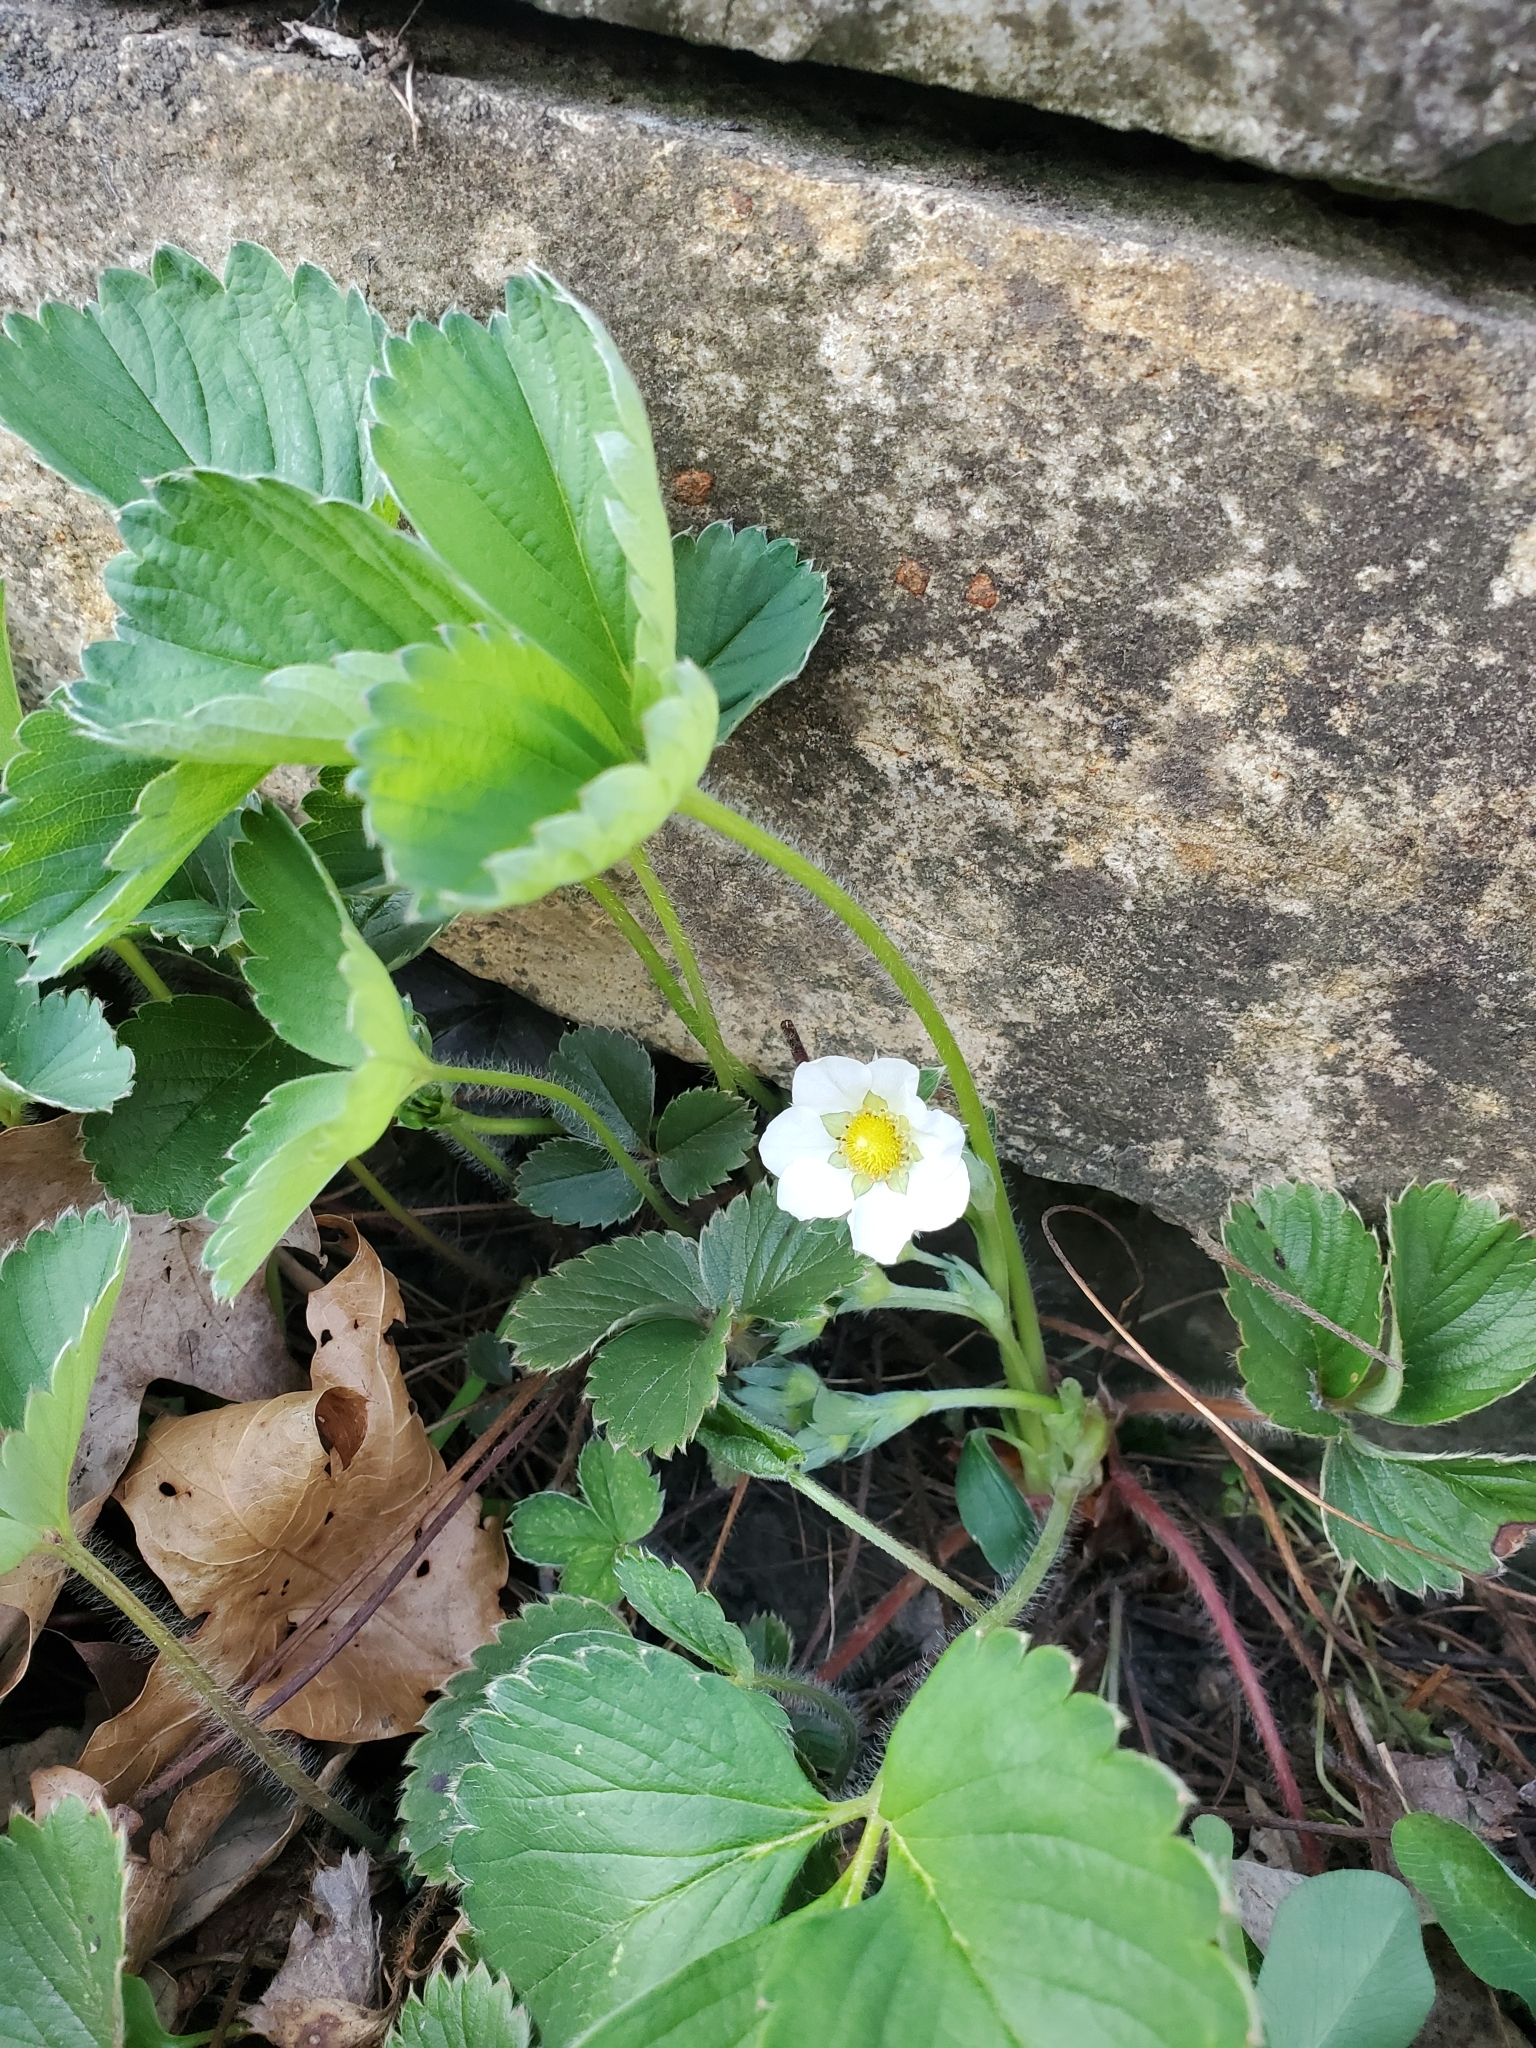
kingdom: Plantae
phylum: Tracheophyta
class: Magnoliopsida
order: Rosales
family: Rosaceae
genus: Fragaria
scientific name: Fragaria vesca
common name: Wild strawberry
